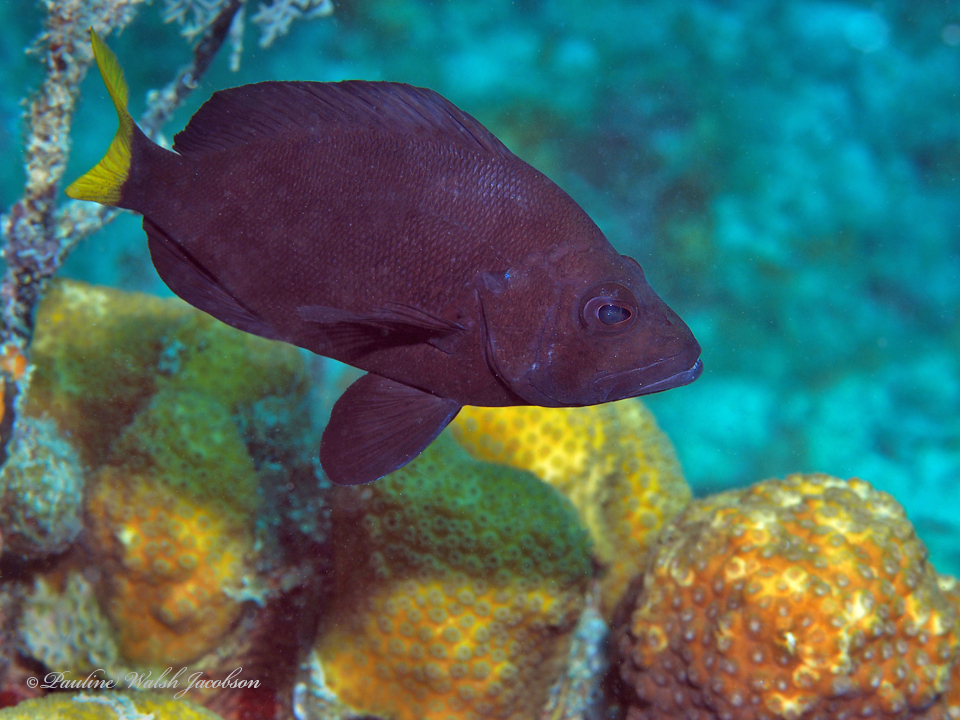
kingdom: Animalia
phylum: Chordata
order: Perciformes
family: Serranidae
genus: Hypoplectrus
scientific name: Hypoplectrus chlorurus
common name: Yellowtail hamlet
